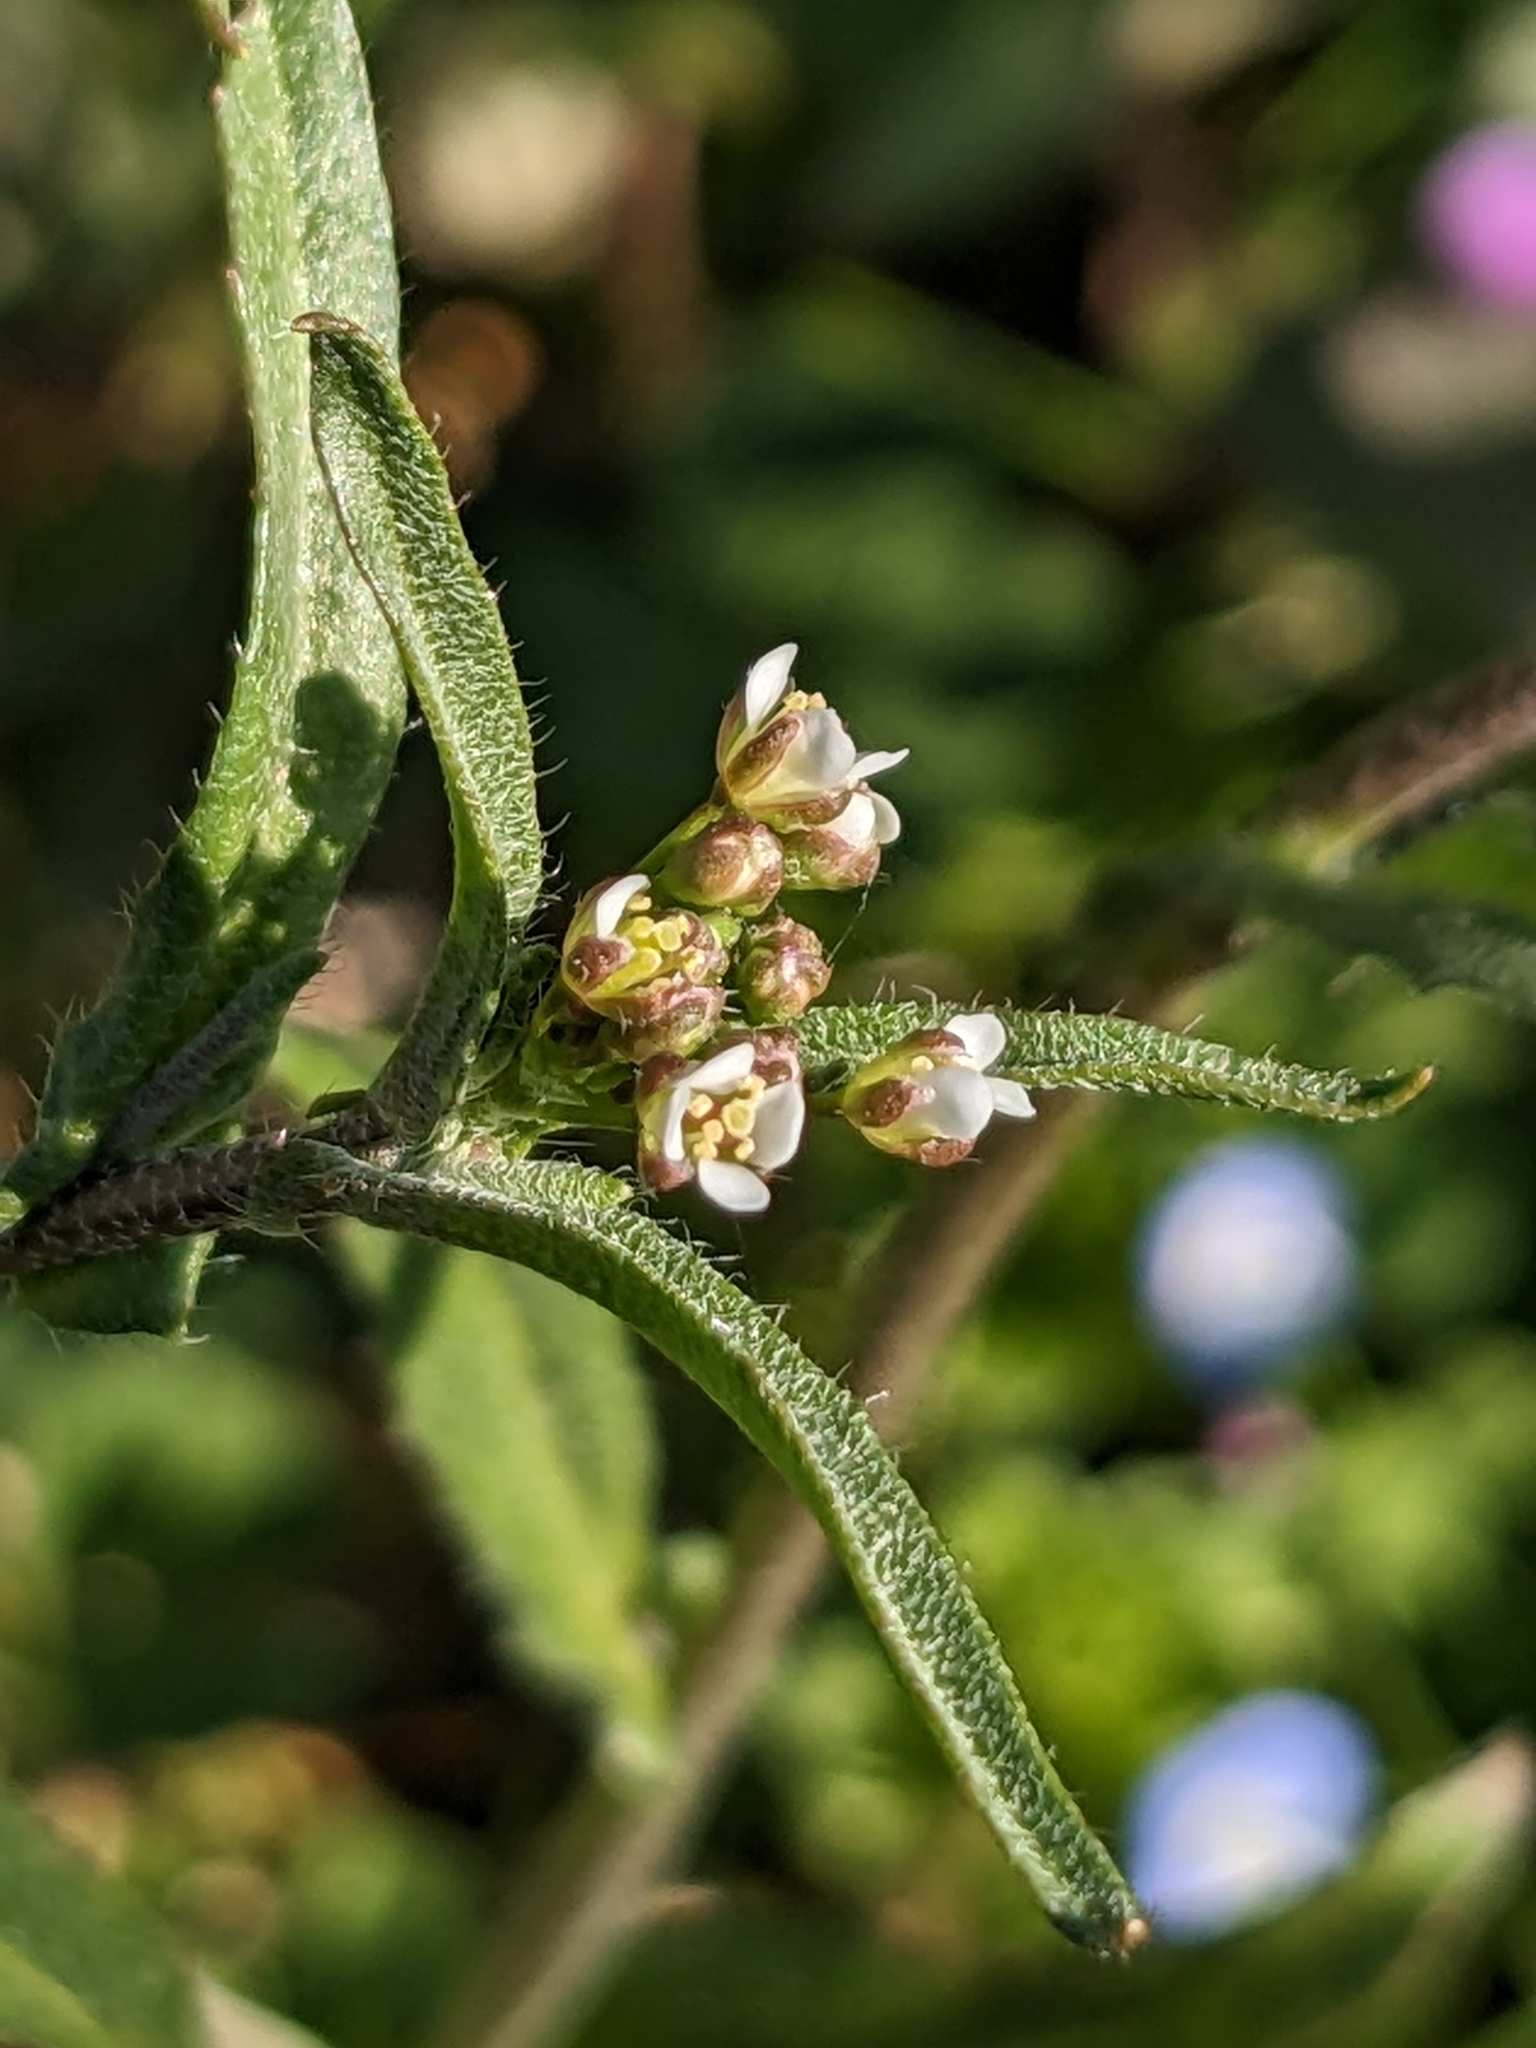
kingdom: Plantae
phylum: Tracheophyta
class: Magnoliopsida
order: Brassicales
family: Brassicaceae
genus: Capsella
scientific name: Capsella bursa-pastoris
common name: Shepherd's purse
